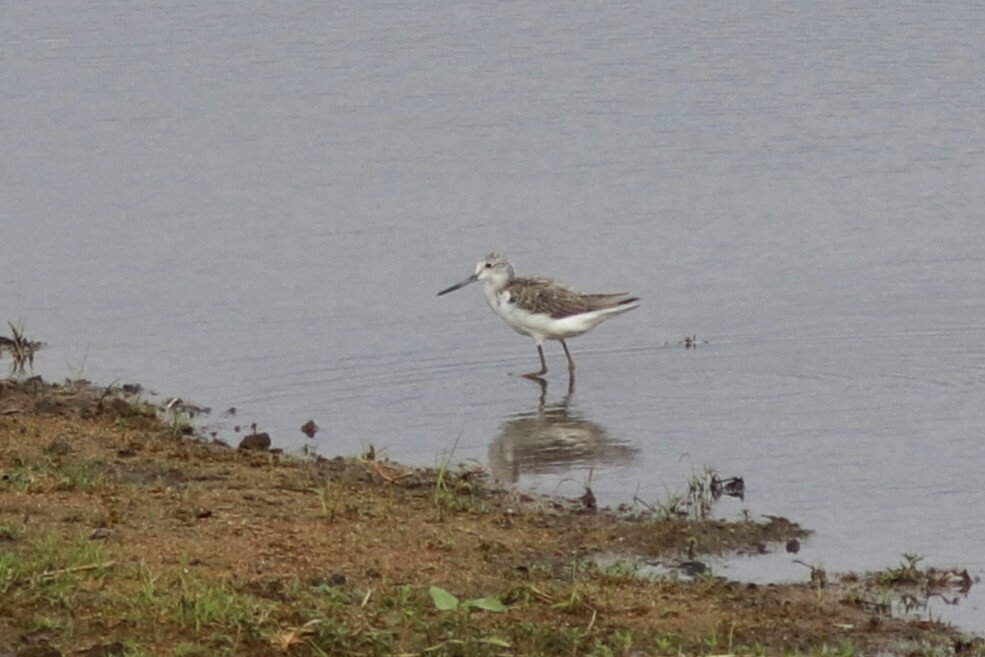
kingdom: Animalia
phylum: Chordata
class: Aves
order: Charadriiformes
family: Scolopacidae
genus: Tringa
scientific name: Tringa nebularia
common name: Common greenshank
